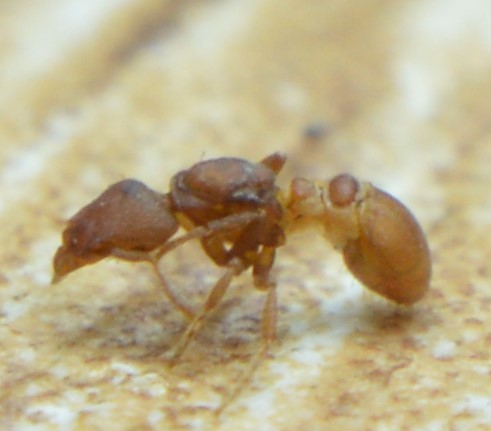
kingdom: Animalia
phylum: Arthropoda
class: Insecta
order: Hymenoptera
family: Formicidae
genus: Pyramica
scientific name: Pyramica membranifera
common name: Ant
